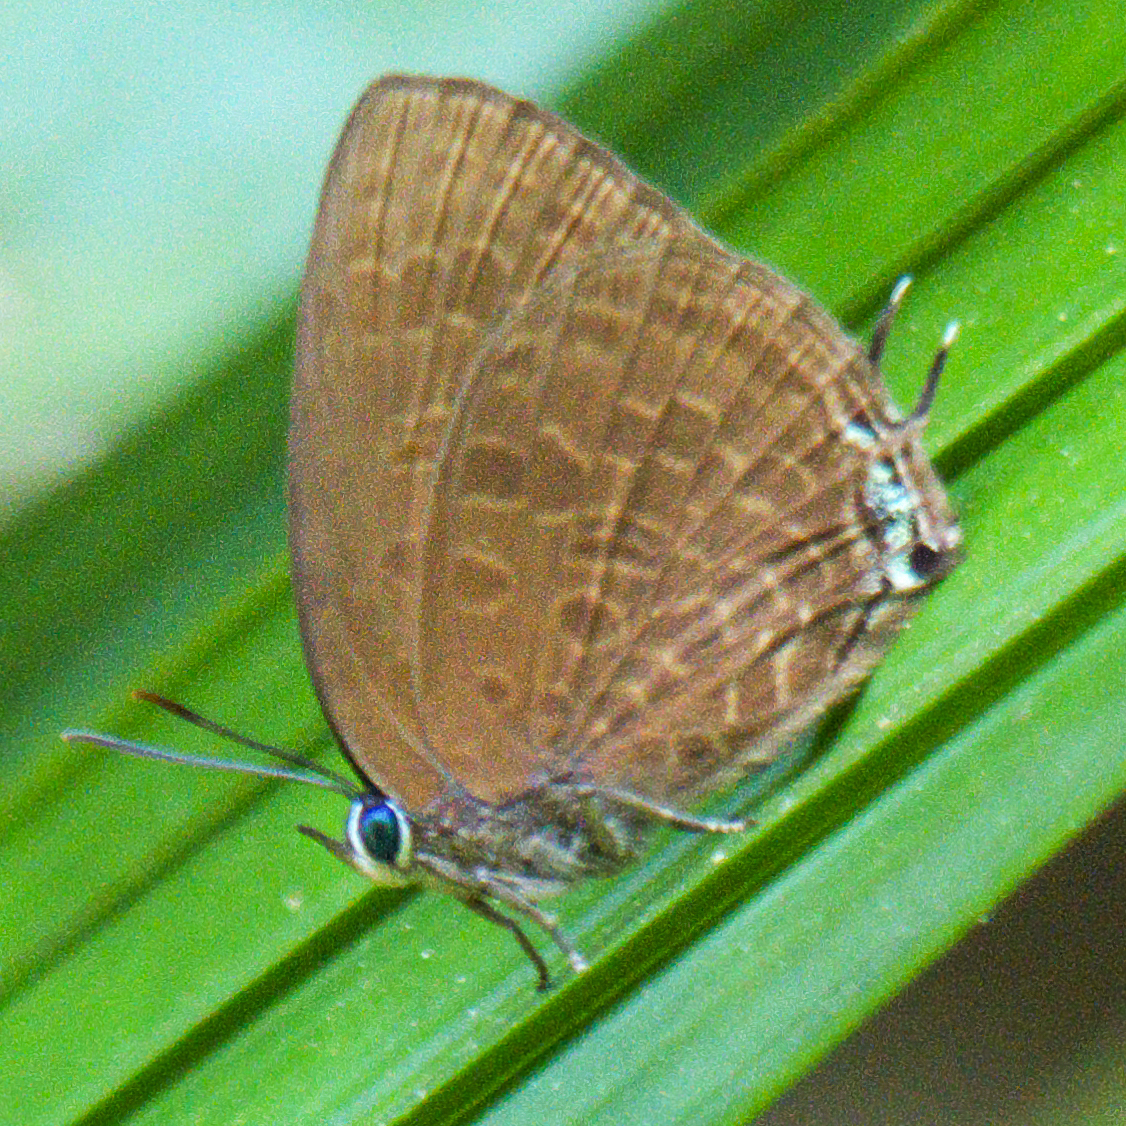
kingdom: Animalia
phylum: Arthropoda
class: Insecta
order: Lepidoptera
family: Lycaenidae
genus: Arhopala
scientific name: Arhopala agrata
